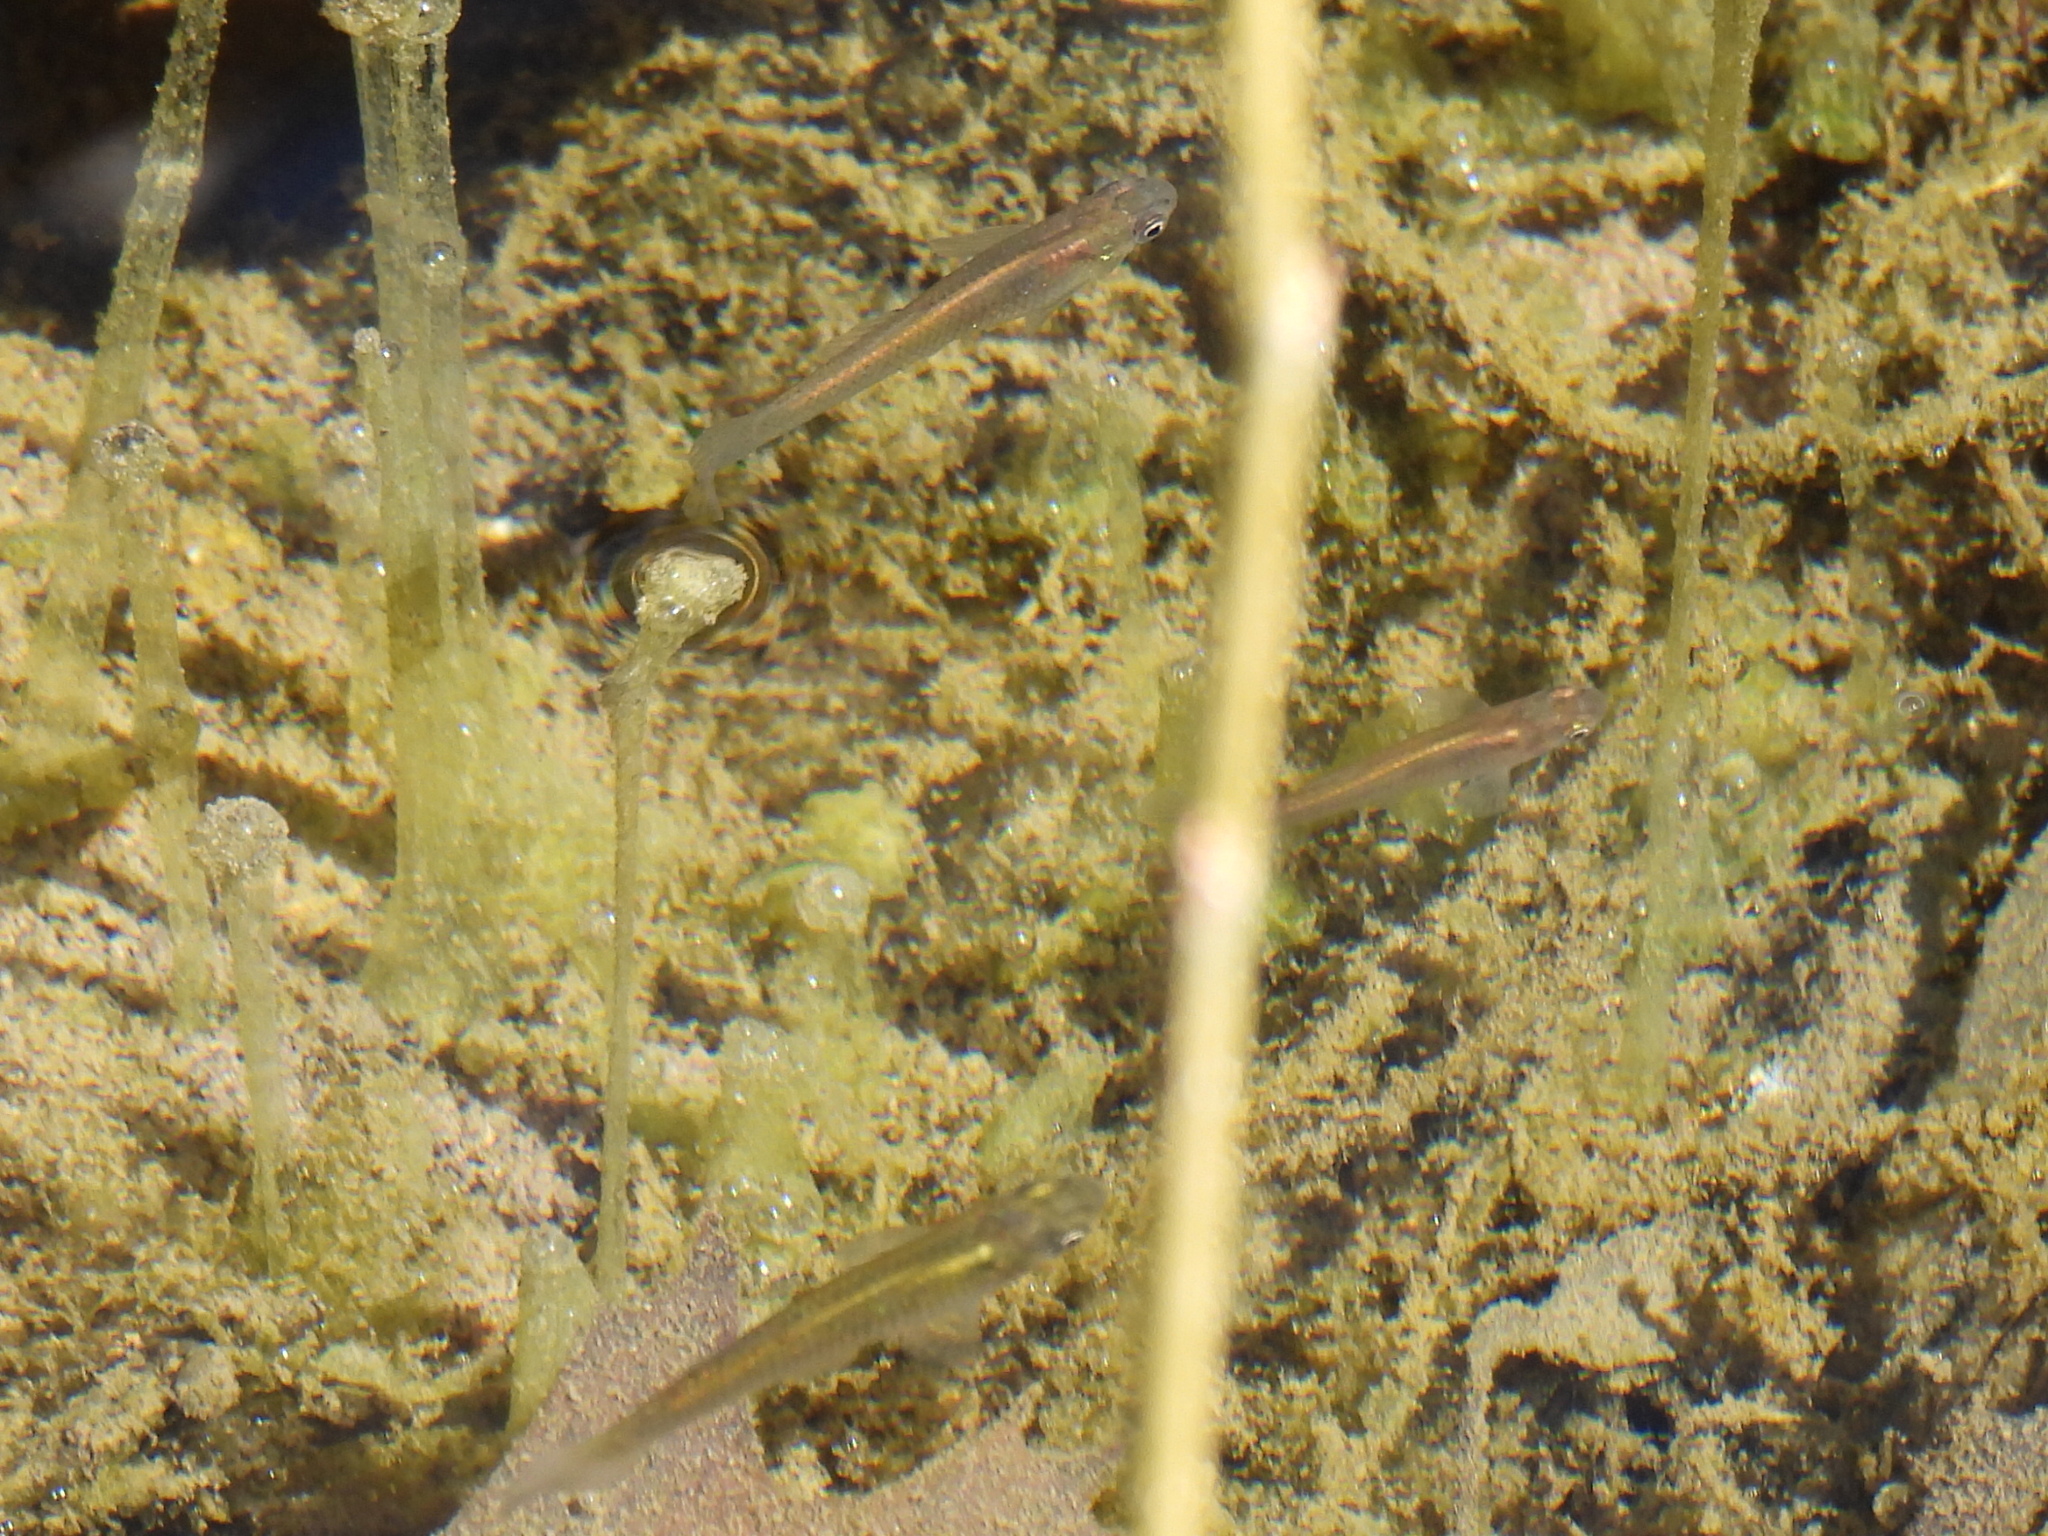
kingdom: Animalia
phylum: Chordata
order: Cyprinodontiformes
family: Poeciliidae
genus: Gambusia
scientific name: Gambusia affinis
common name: Mosquitofish
